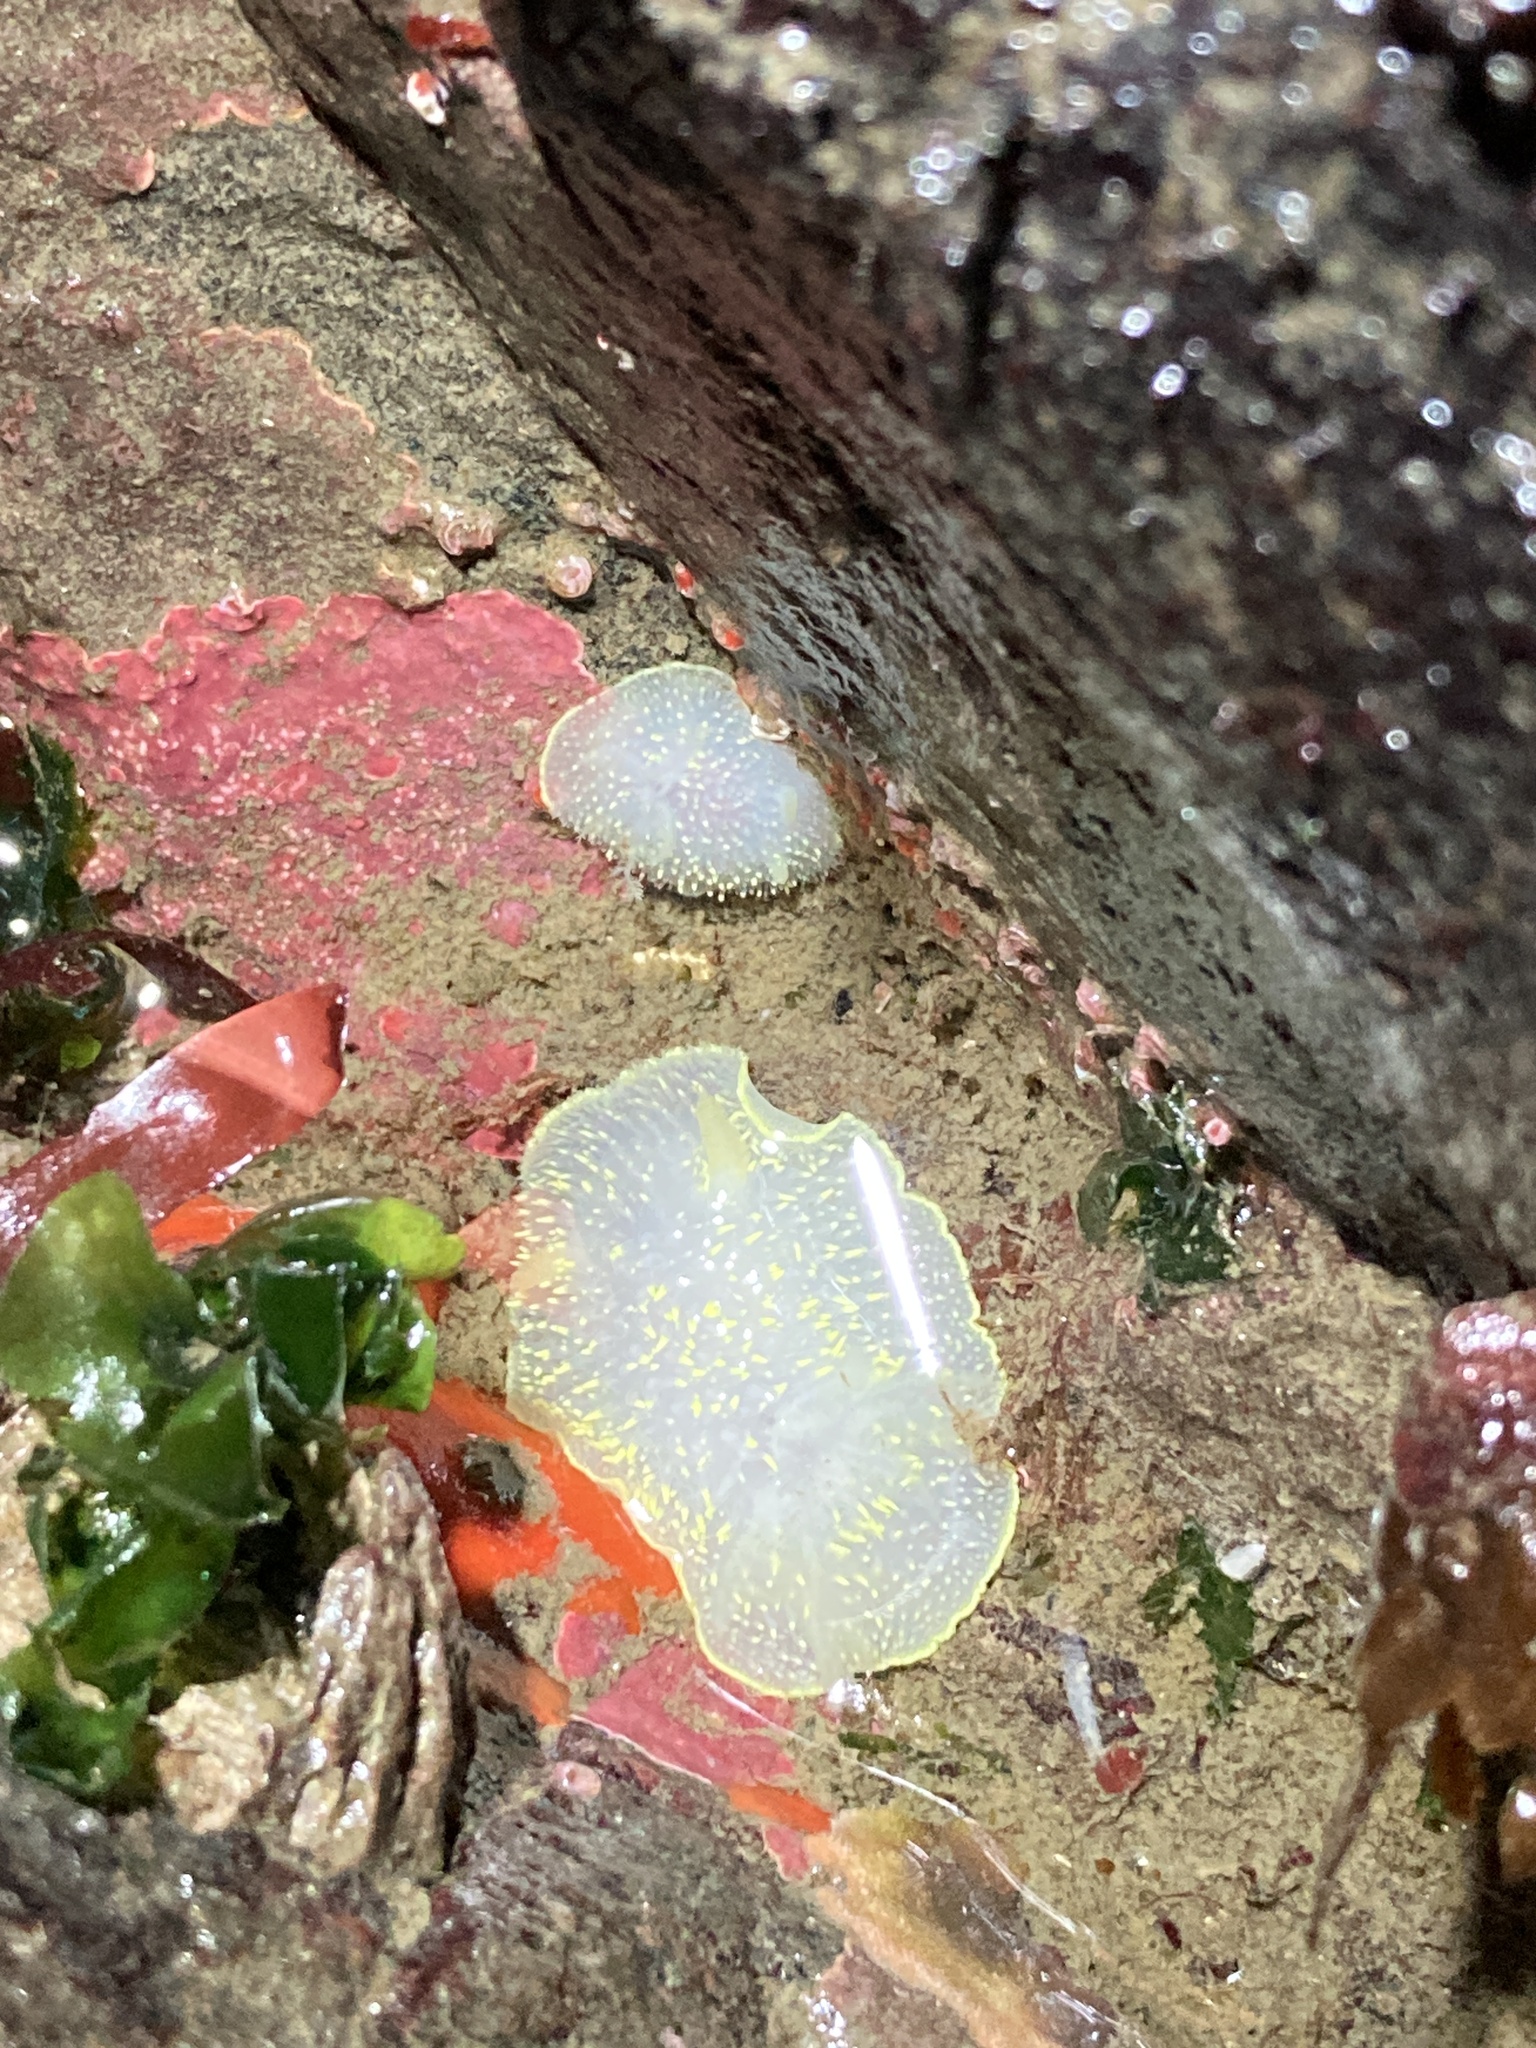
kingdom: Animalia
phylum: Mollusca
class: Gastropoda
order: Nudibranchia
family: Onchidorididae
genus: Acanthodoris
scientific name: Acanthodoris hudsoni
